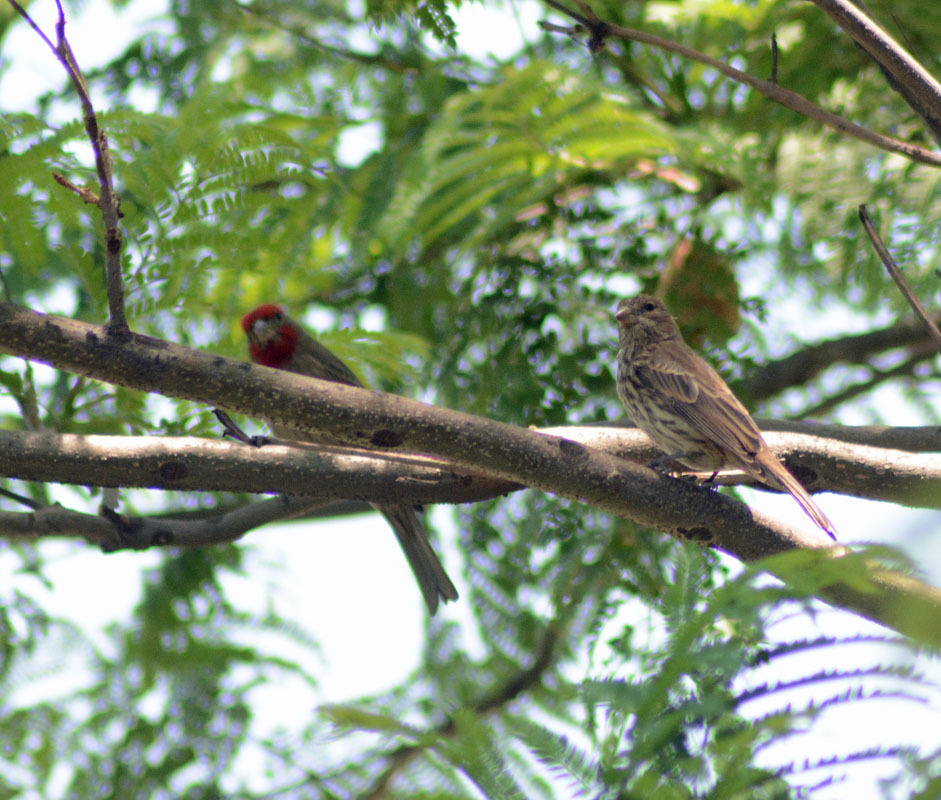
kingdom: Animalia
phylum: Chordata
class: Aves
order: Passeriformes
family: Fringillidae
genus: Haemorhous
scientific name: Haemorhous mexicanus
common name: House finch
